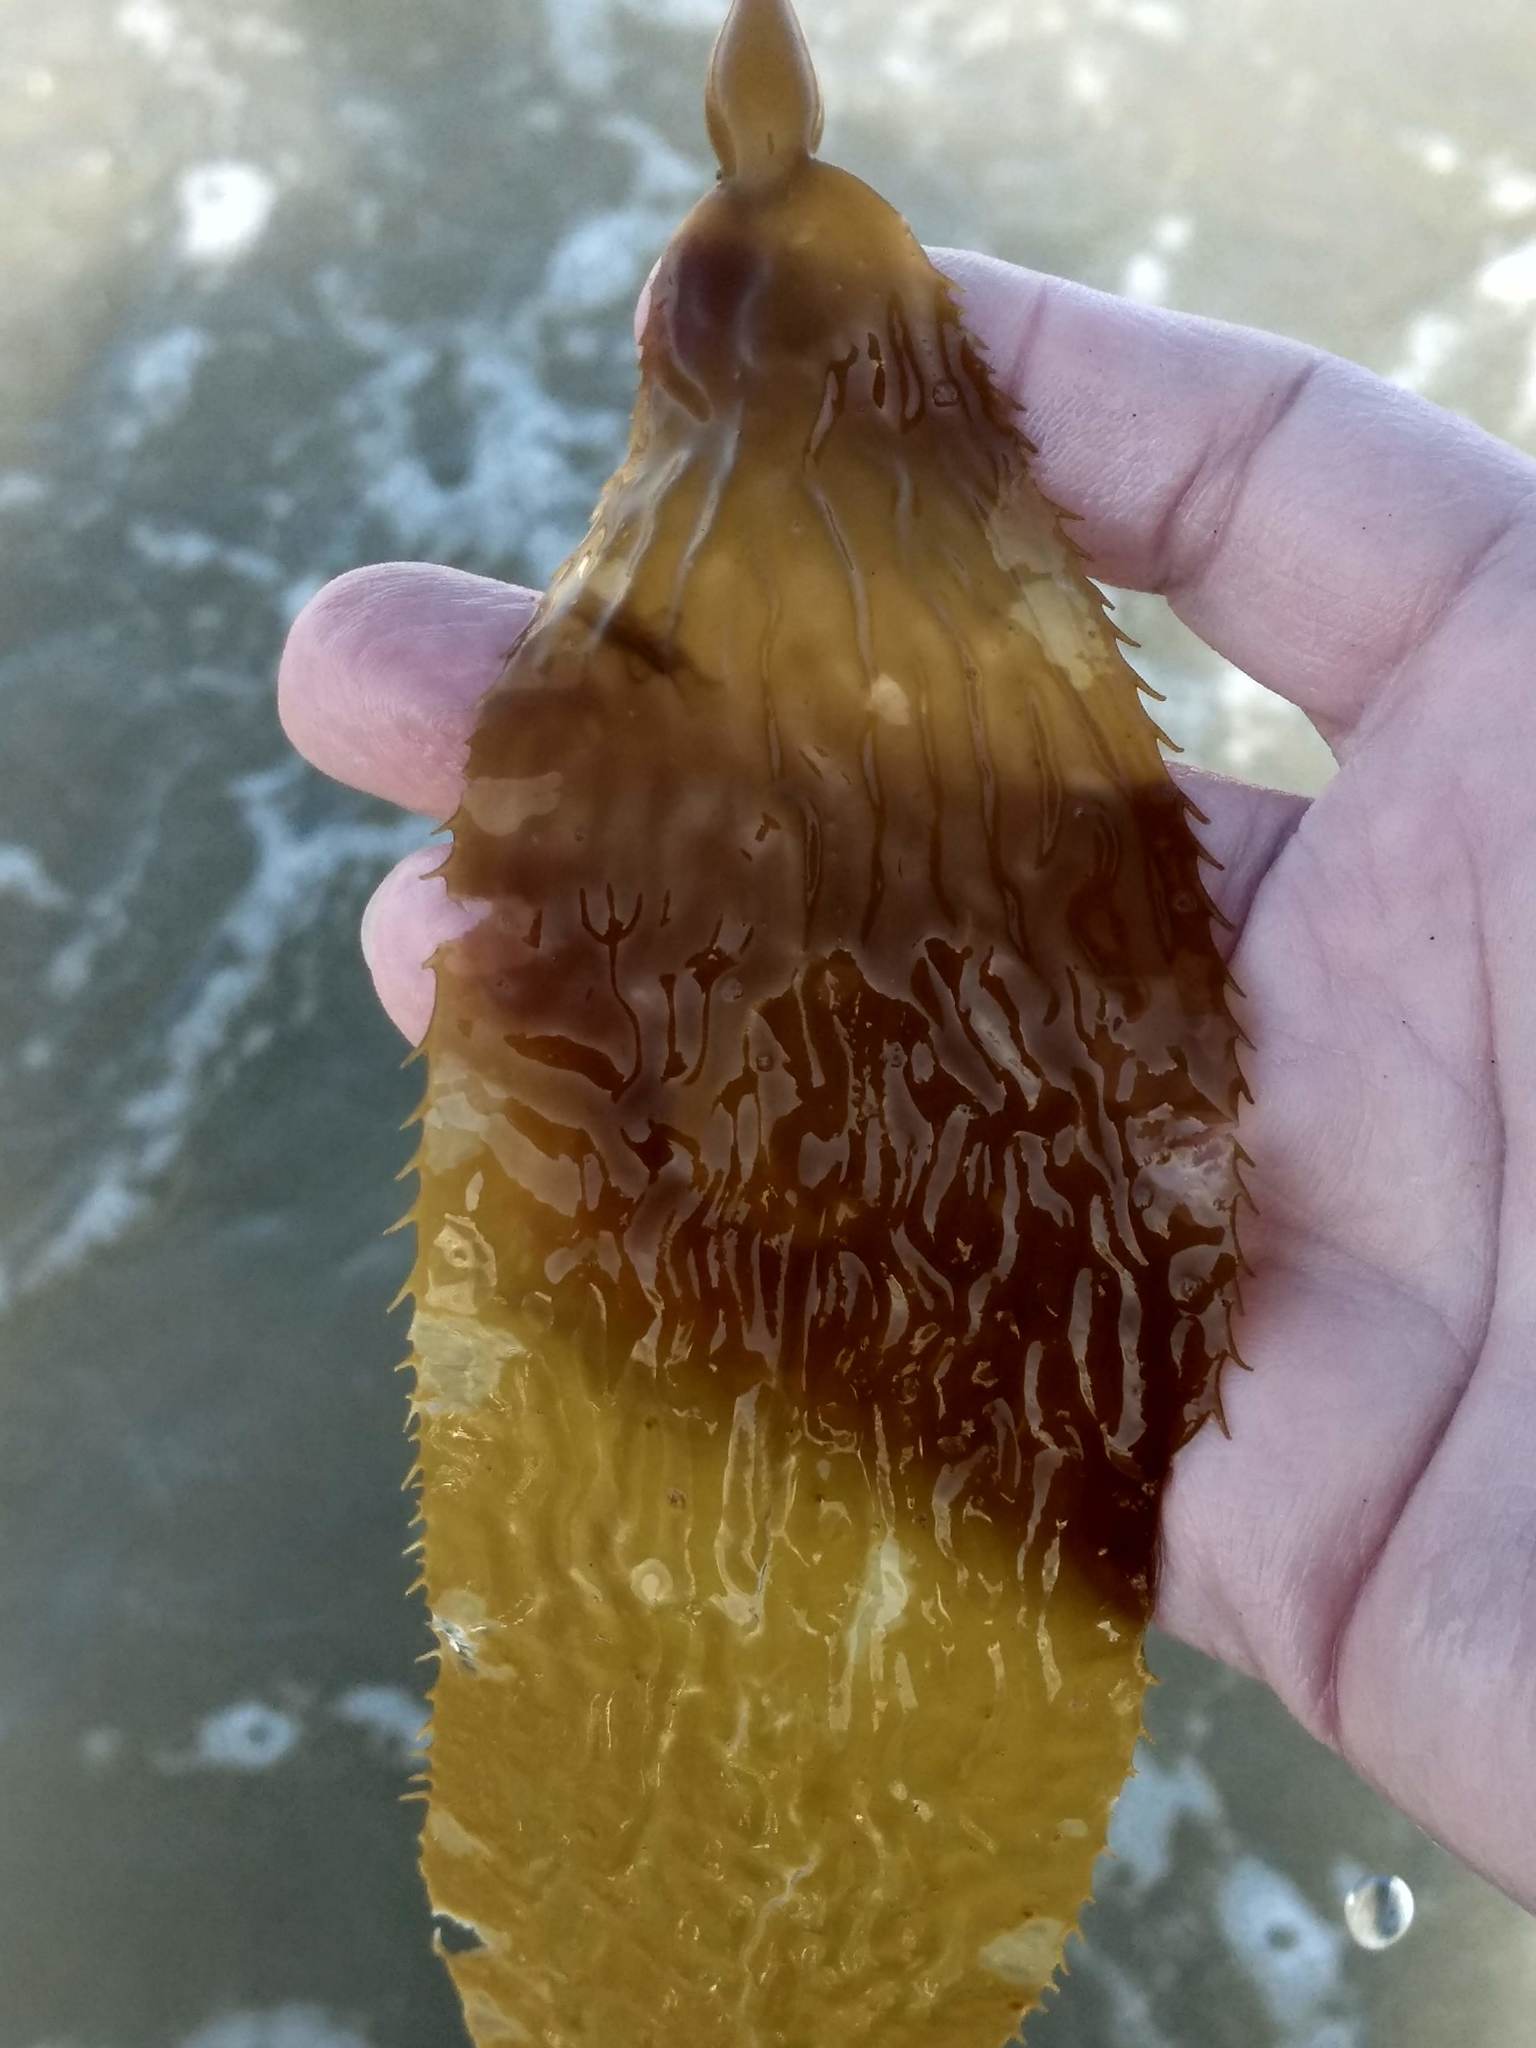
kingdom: Chromista
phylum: Ochrophyta
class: Phaeophyceae
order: Laminariales
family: Laminariaceae
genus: Macrocystis
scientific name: Macrocystis pyrifera
